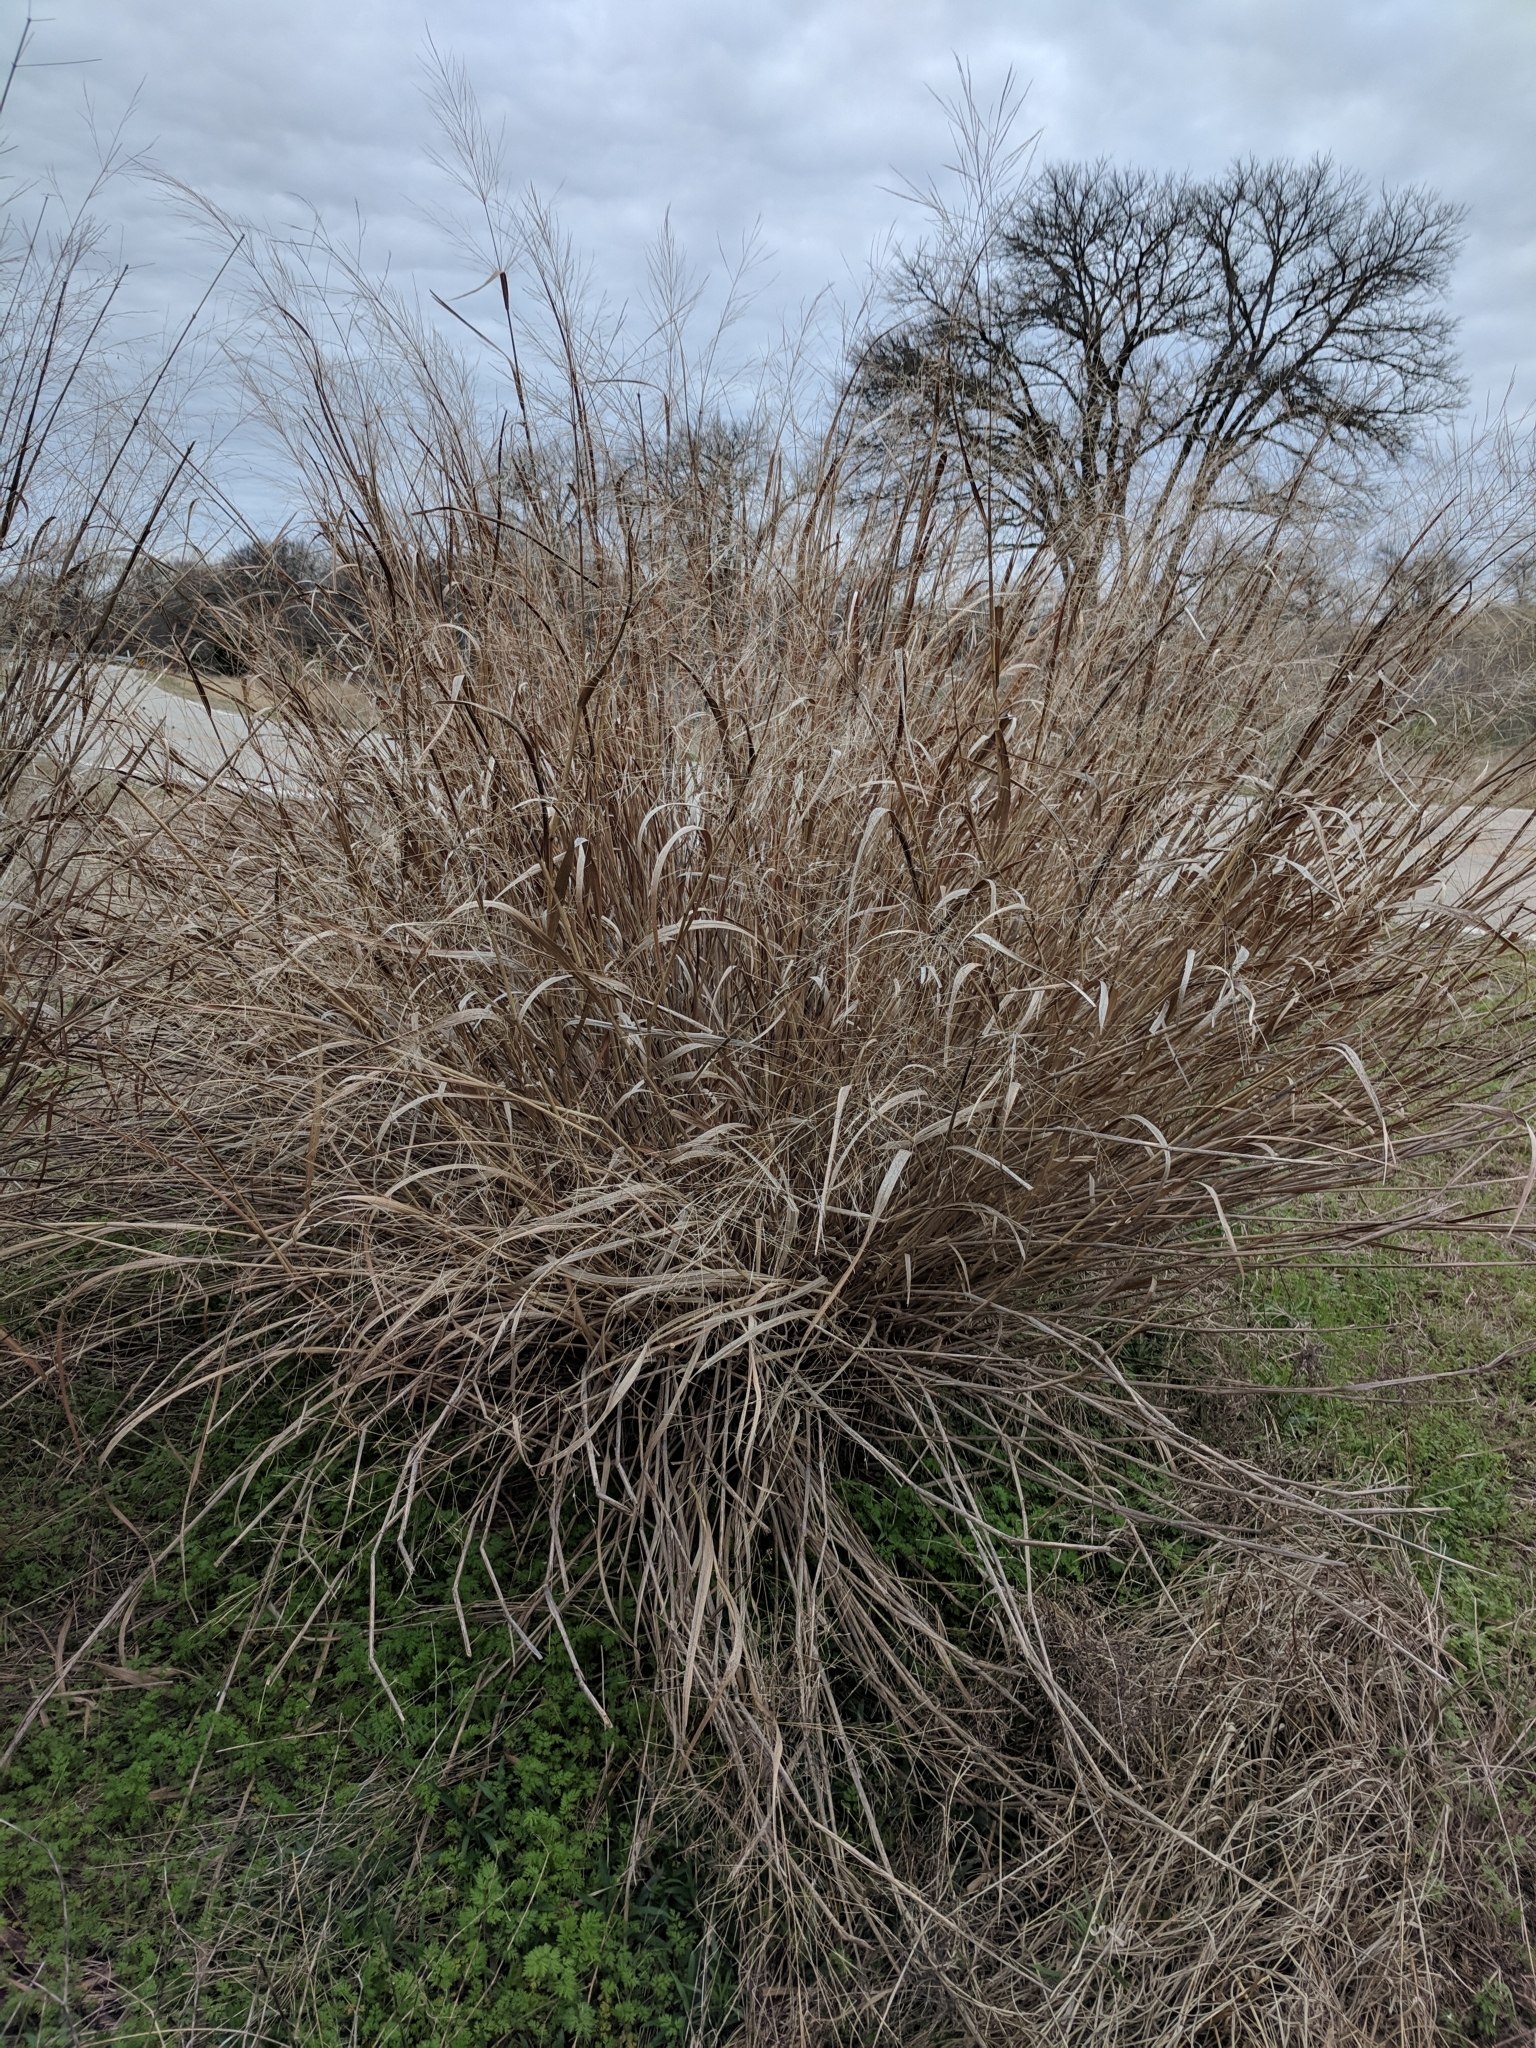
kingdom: Plantae
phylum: Tracheophyta
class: Liliopsida
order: Poales
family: Poaceae
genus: Panicum
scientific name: Panicum virgatum
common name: Switchgrass
